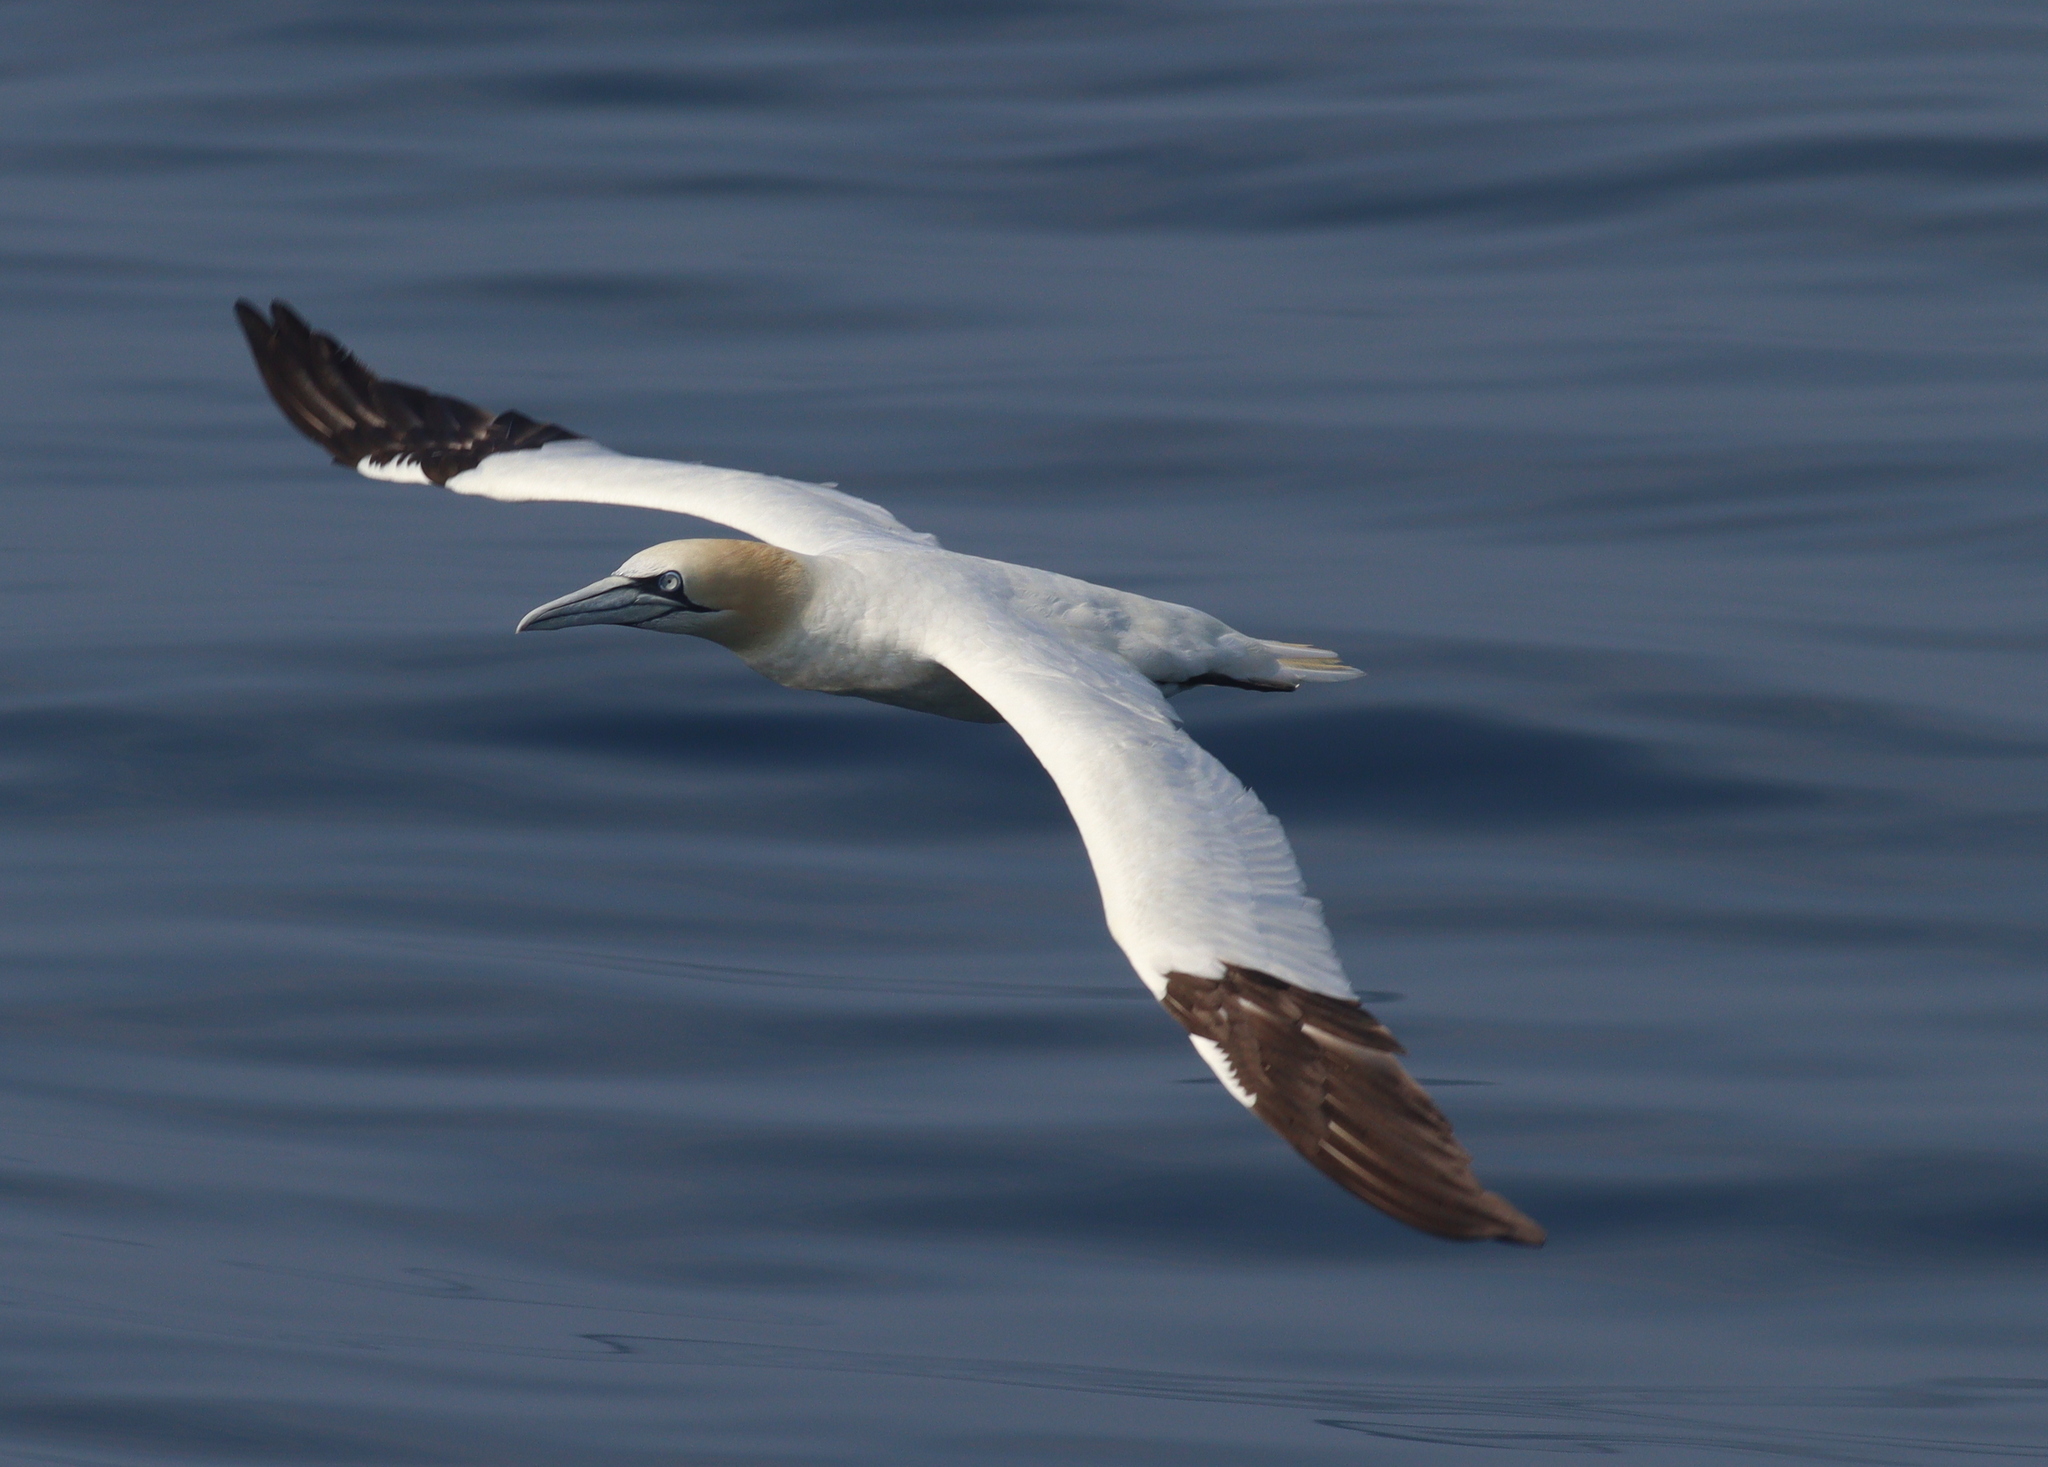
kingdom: Animalia
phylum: Chordata
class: Aves
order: Suliformes
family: Sulidae
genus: Morus
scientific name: Morus bassanus
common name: Northern gannet
